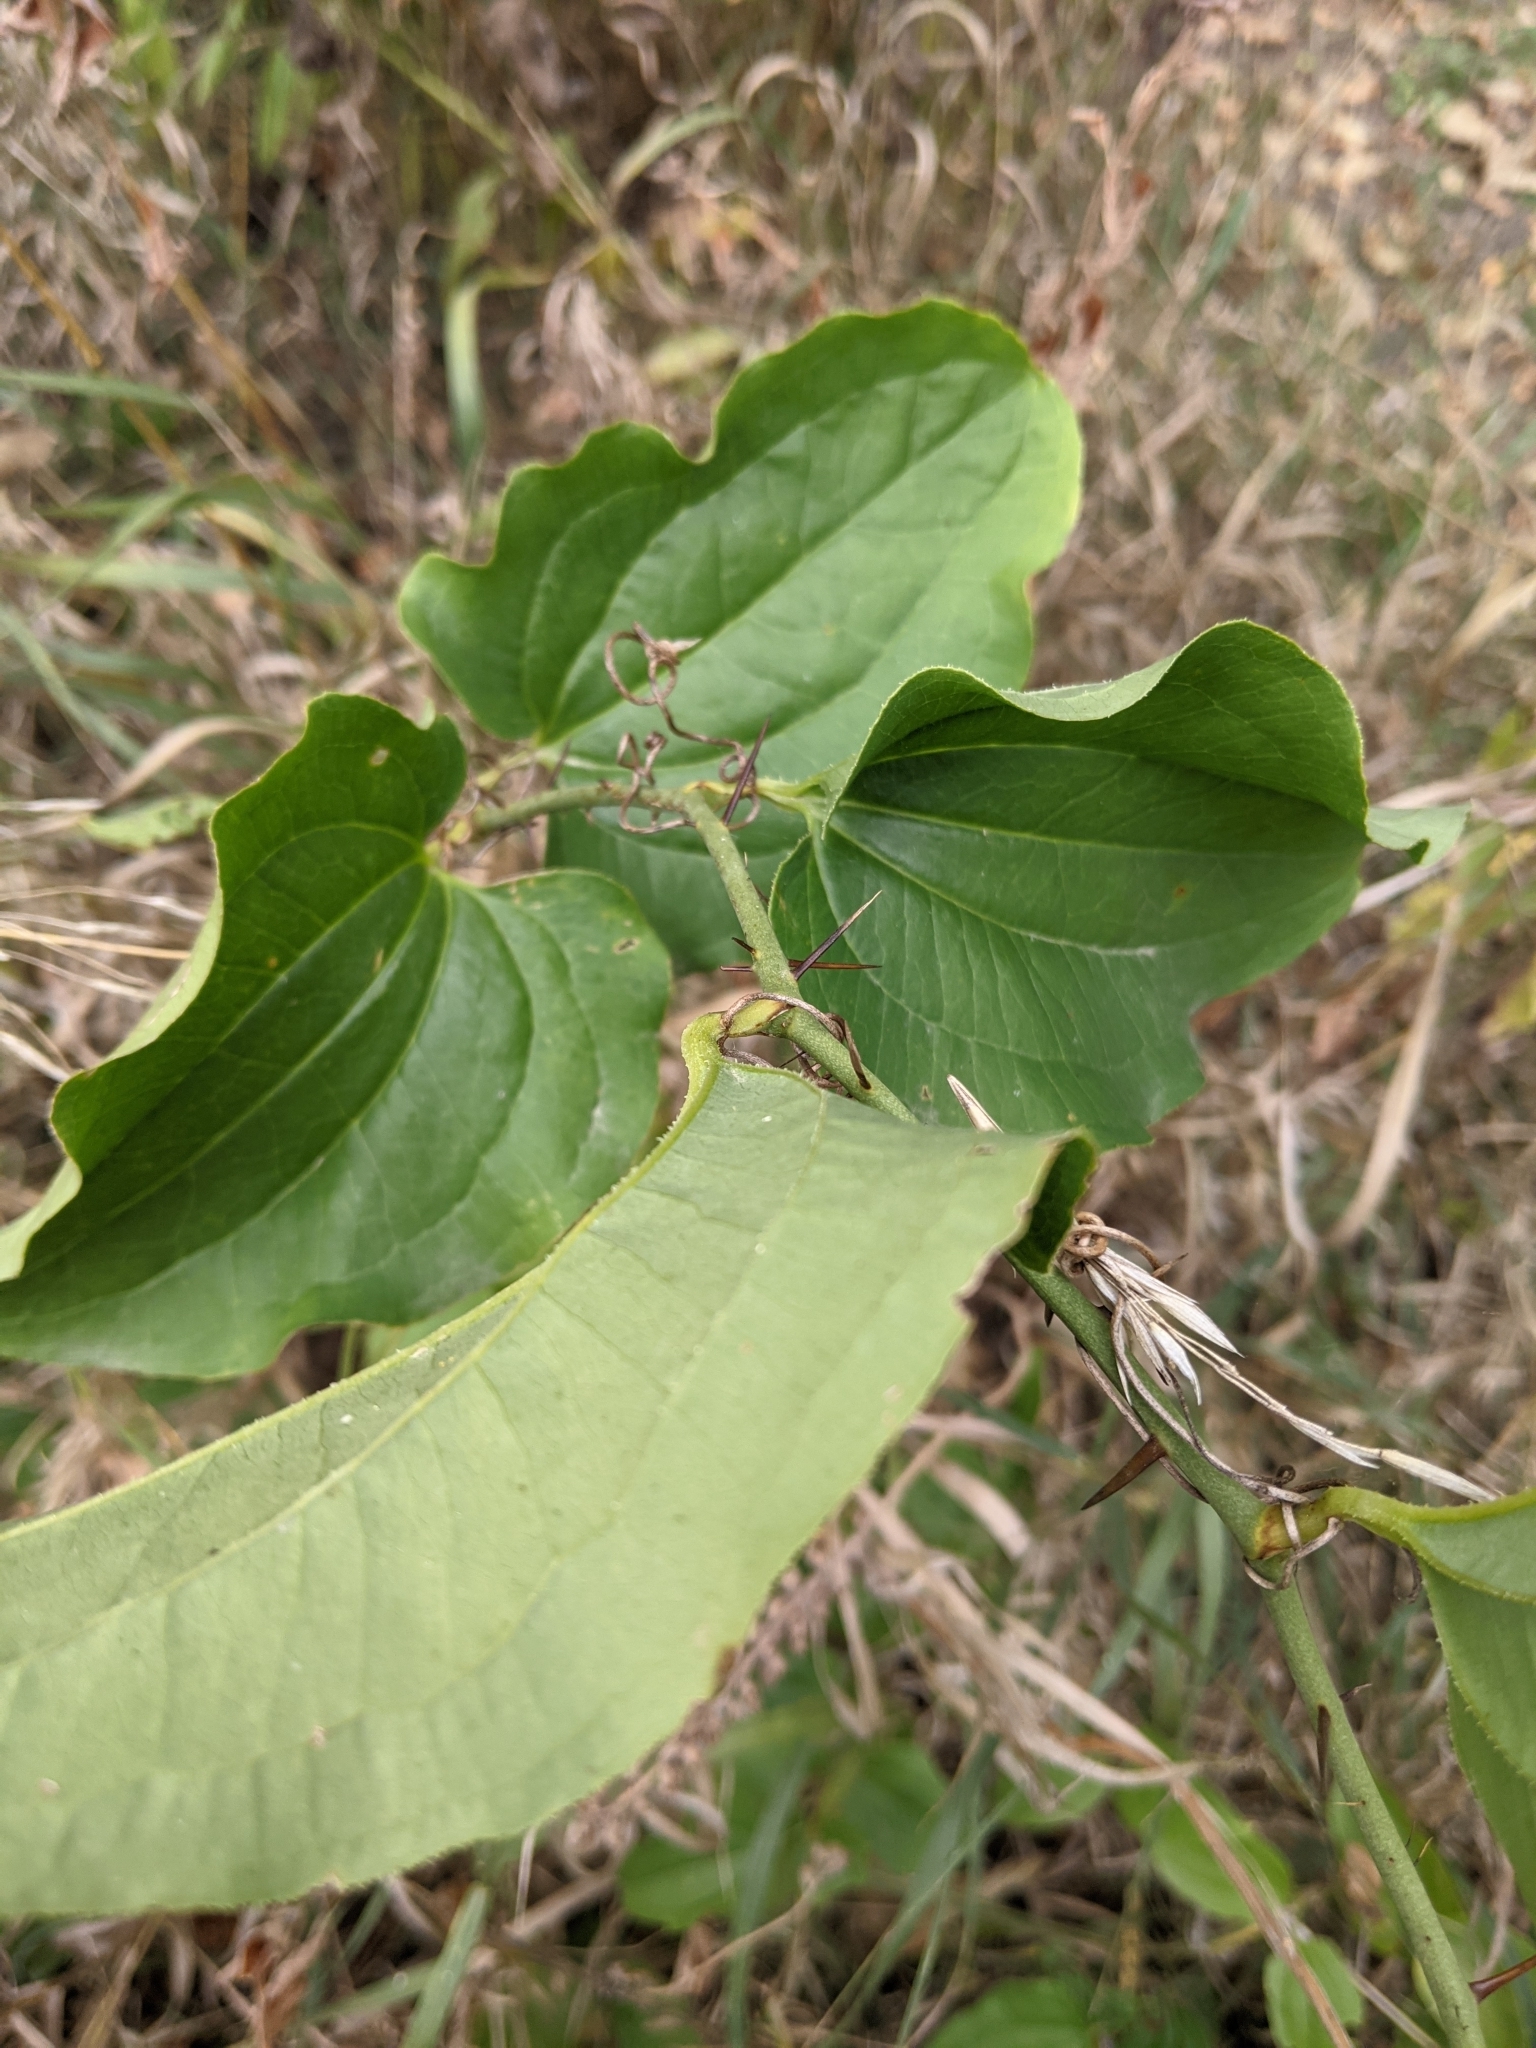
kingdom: Plantae
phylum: Tracheophyta
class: Liliopsida
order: Liliales
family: Smilacaceae
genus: Smilax
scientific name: Smilax tamnoides
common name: Hellfetter
